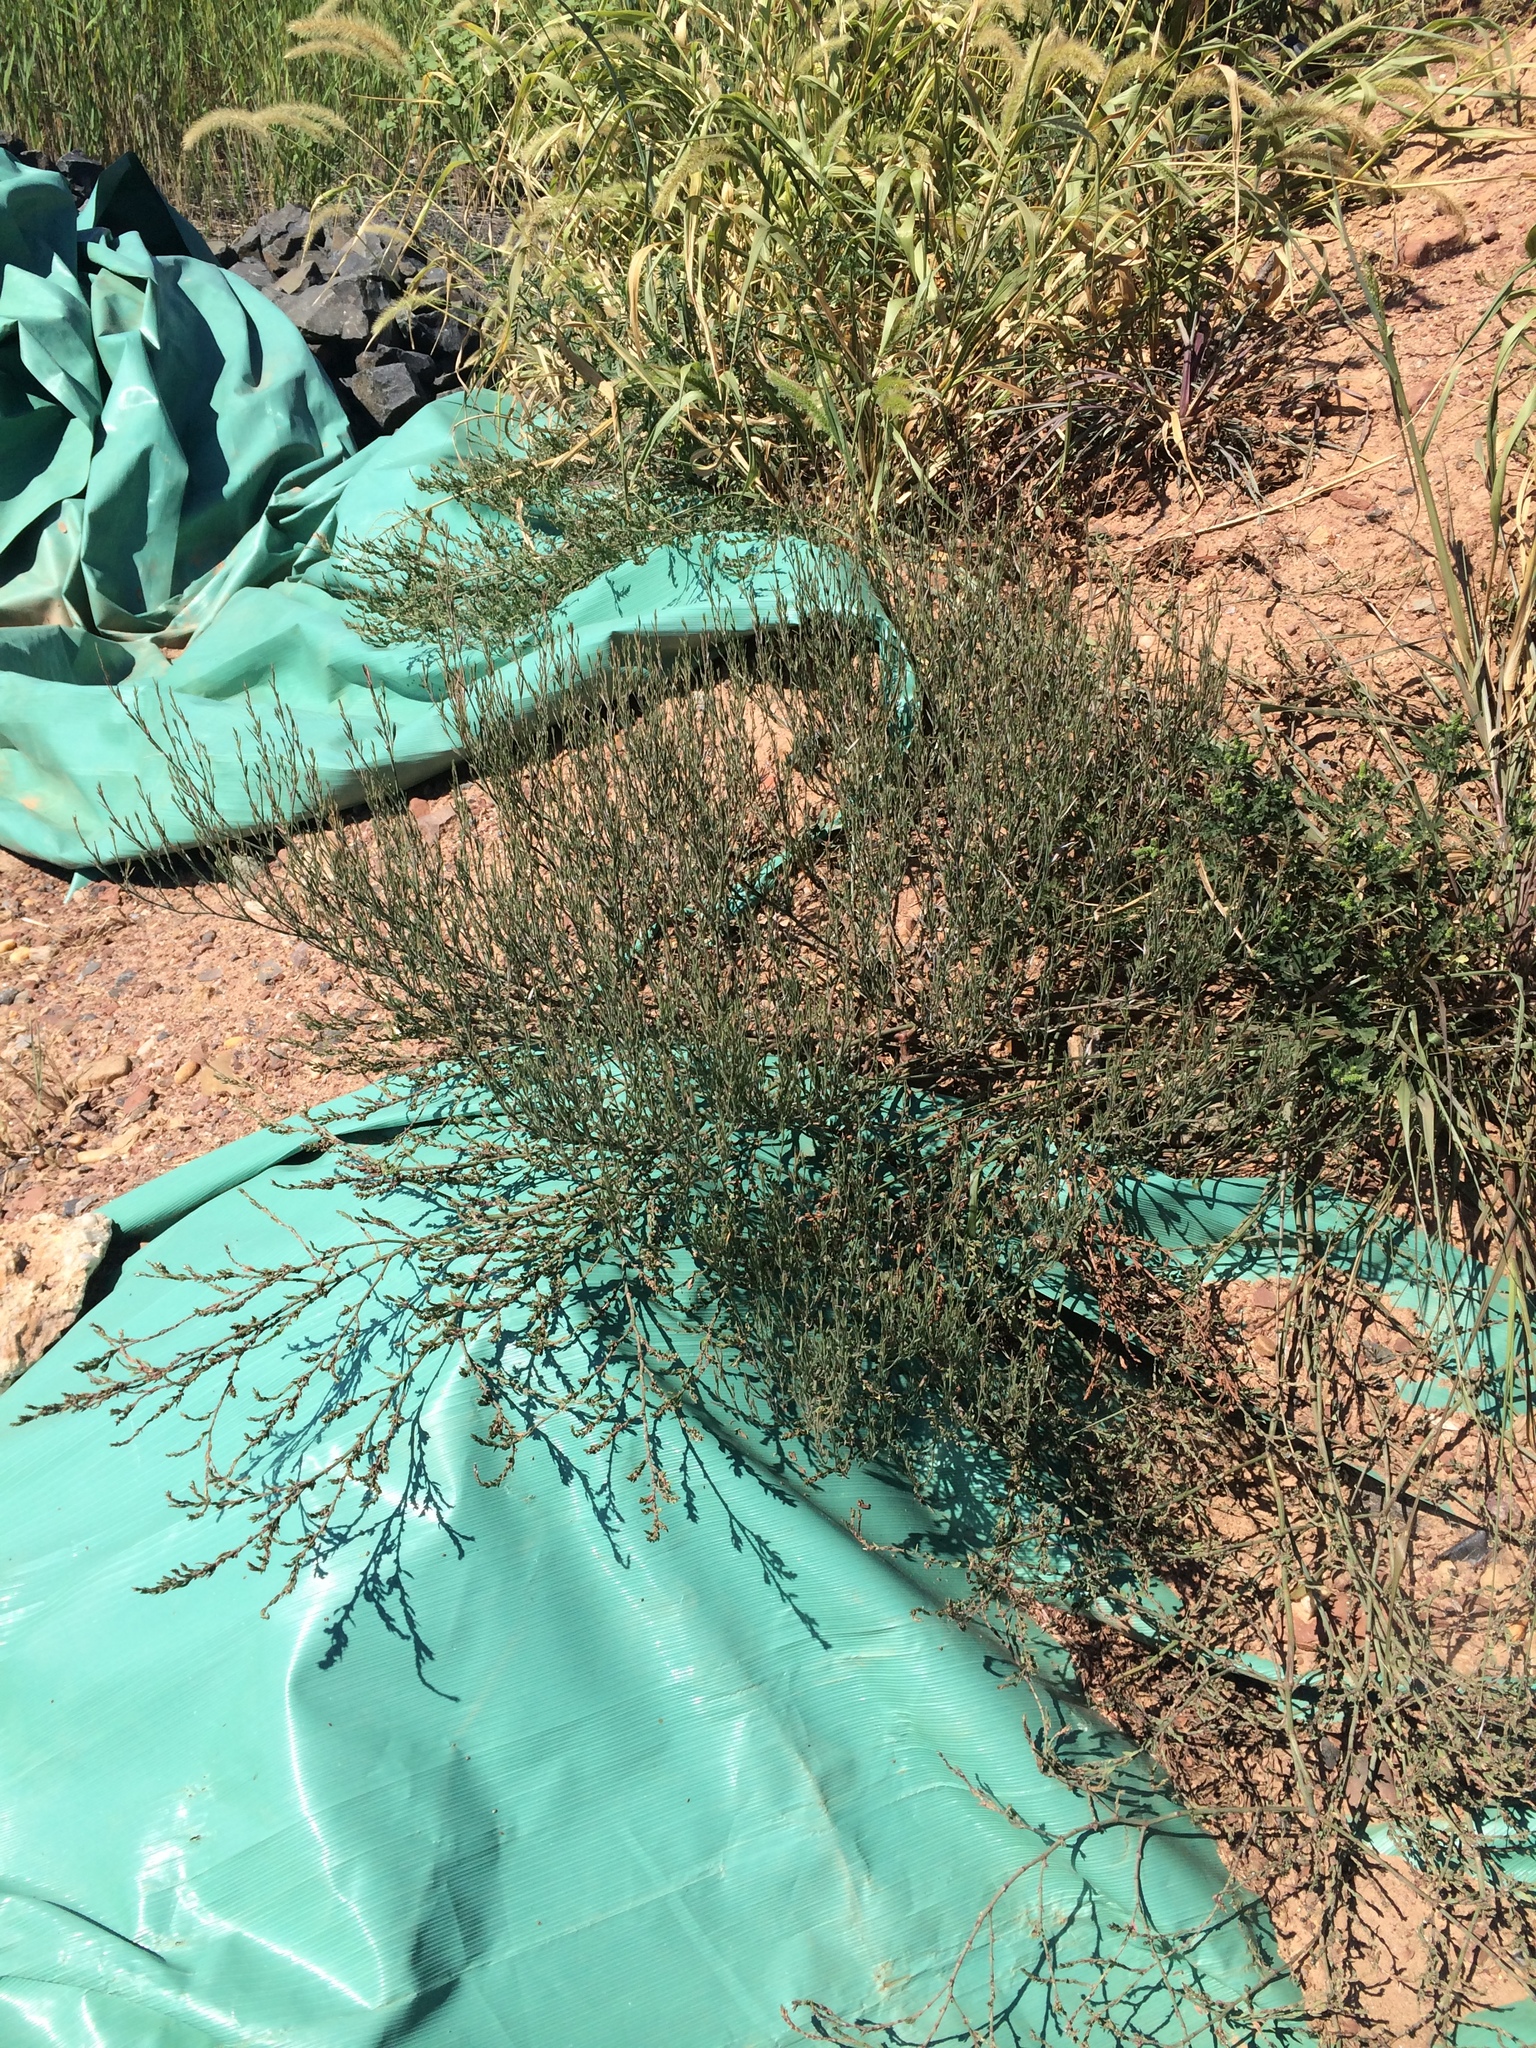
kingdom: Plantae
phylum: Tracheophyta
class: Magnoliopsida
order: Caryophyllales
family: Polygonaceae
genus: Polygonum
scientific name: Polygonum ramosissimum
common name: Bushy knotweed
